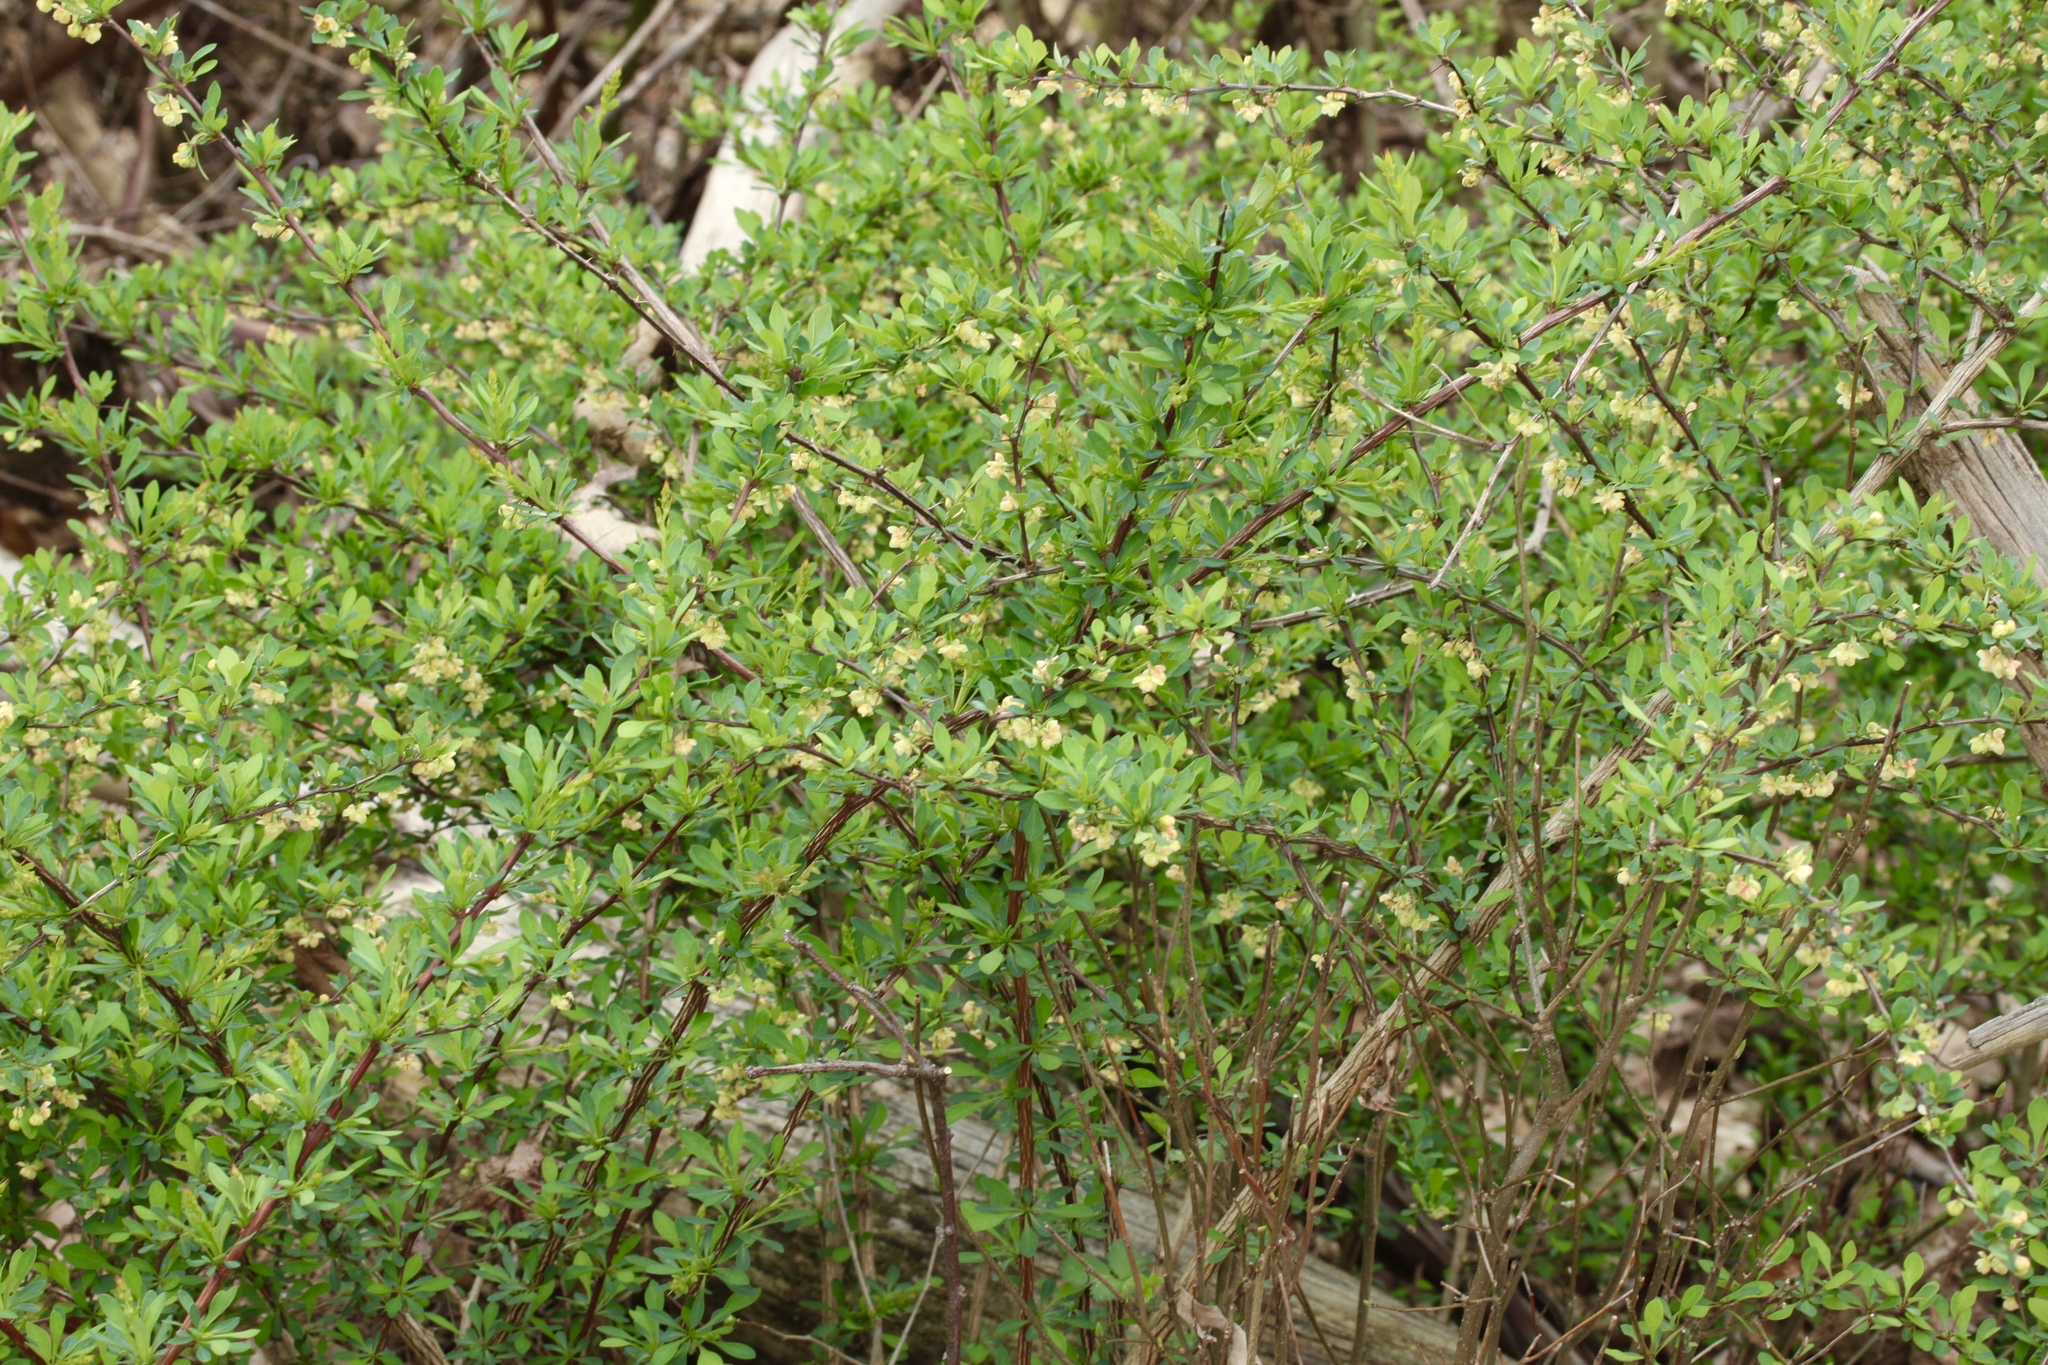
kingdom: Plantae
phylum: Tracheophyta
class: Magnoliopsida
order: Ranunculales
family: Berberidaceae
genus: Berberis
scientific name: Berberis thunbergii
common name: Japanese barberry
